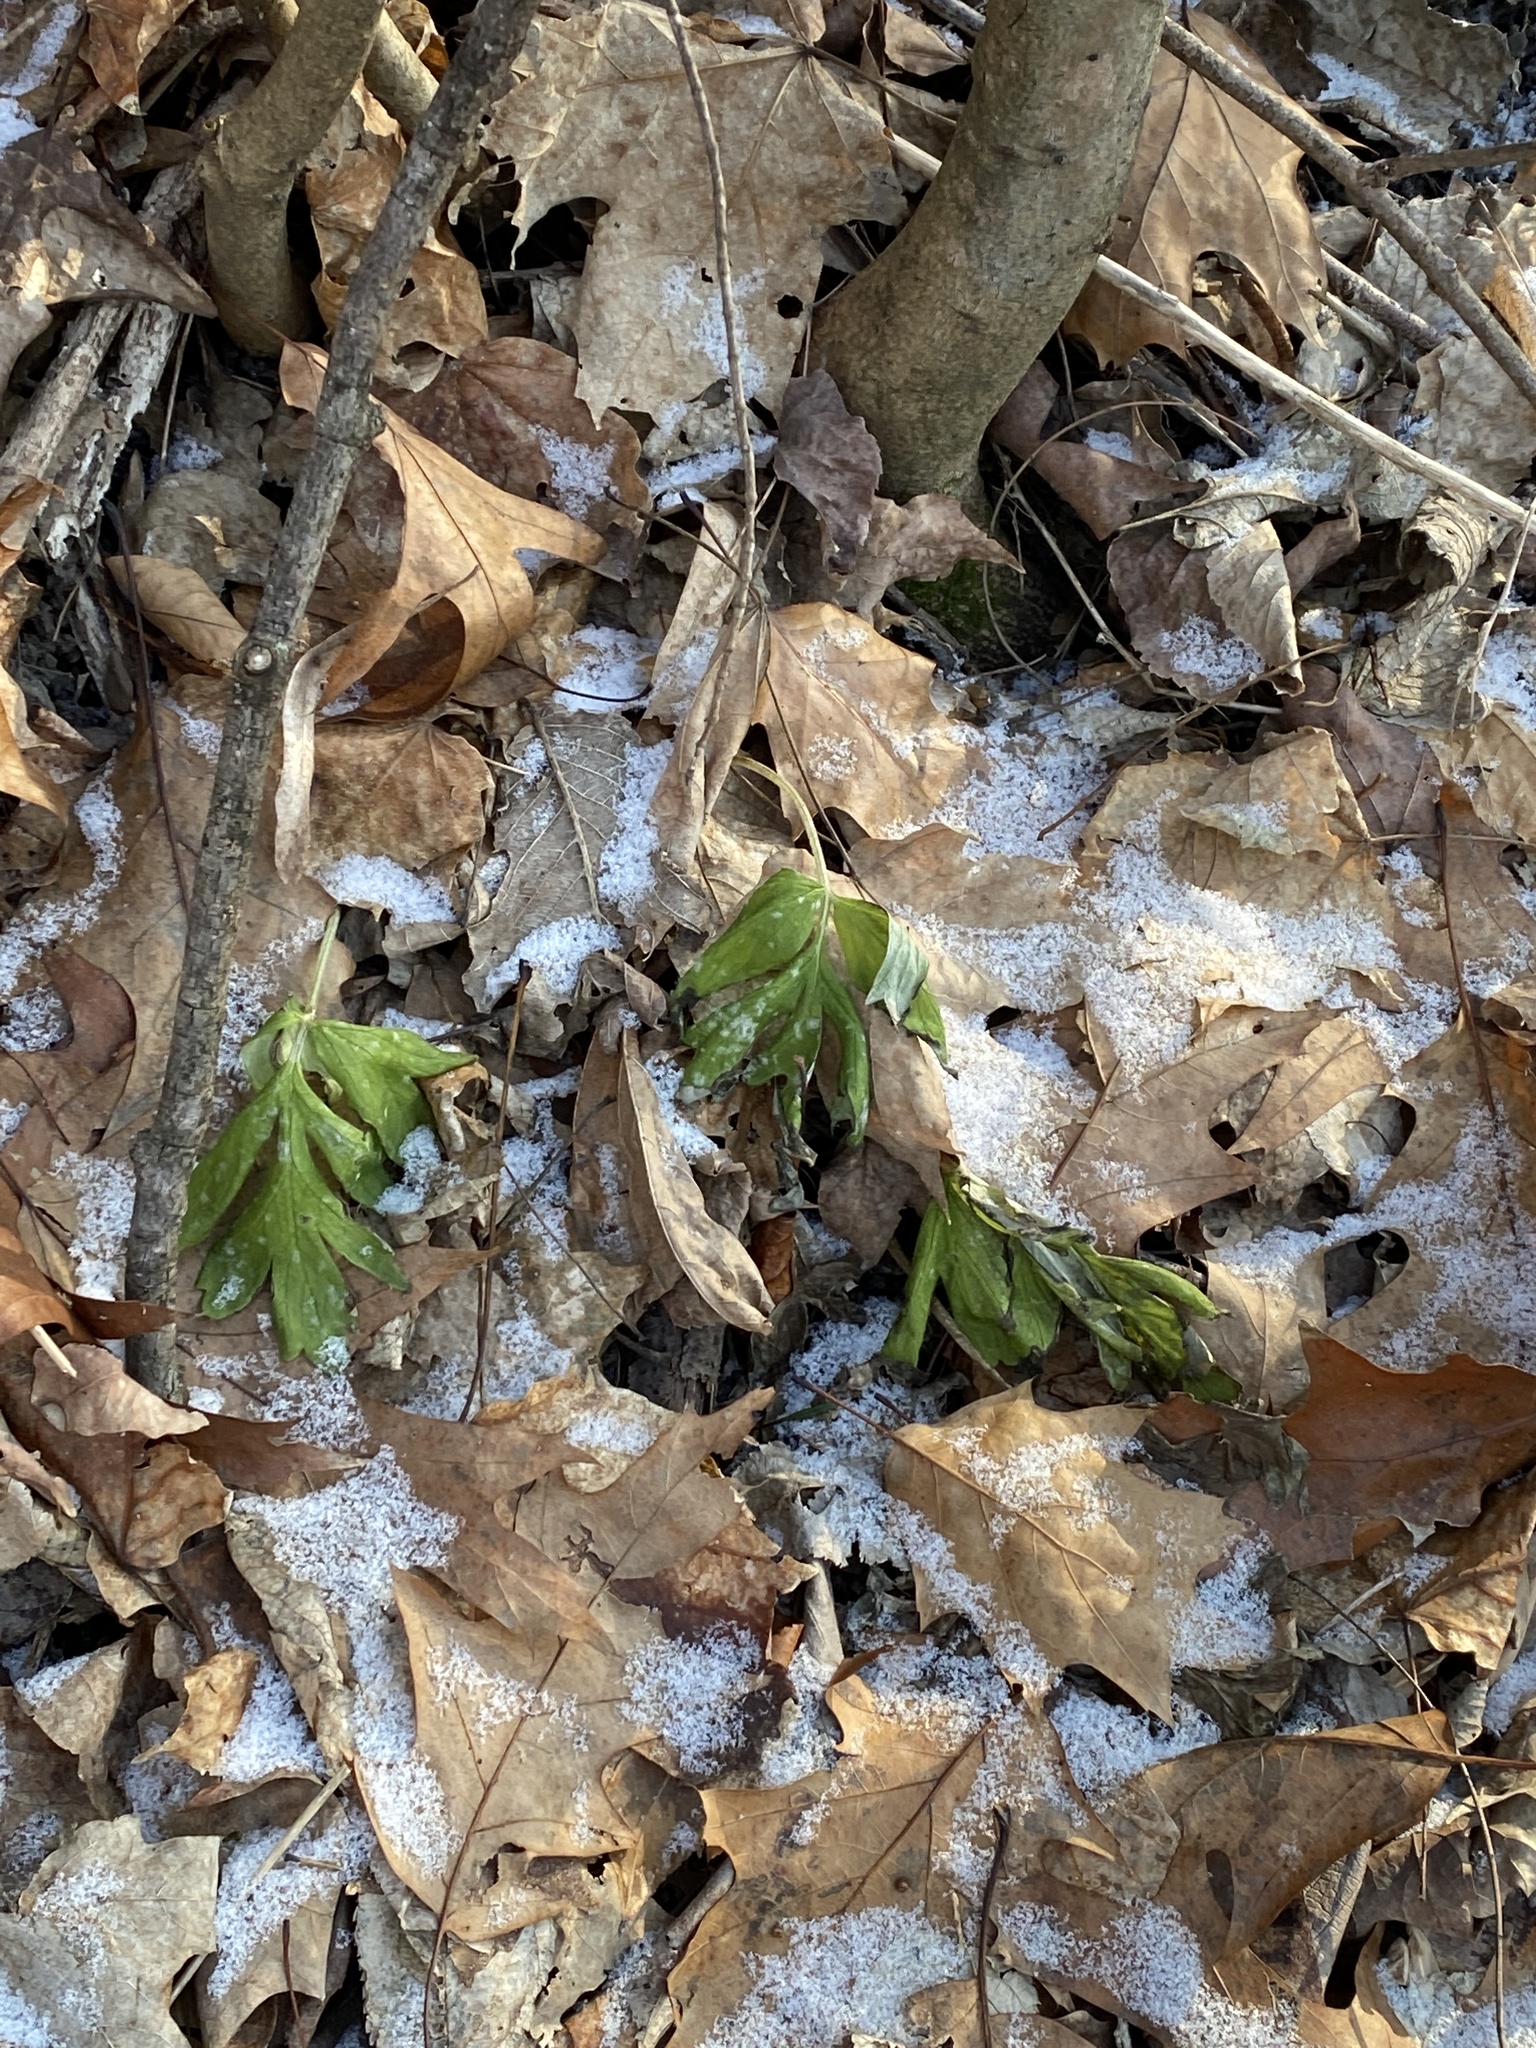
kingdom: Plantae
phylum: Tracheophyta
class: Magnoliopsida
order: Boraginales
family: Hydrophyllaceae
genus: Hydrophyllum
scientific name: Hydrophyllum virginianum
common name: Virginia waterleaf
